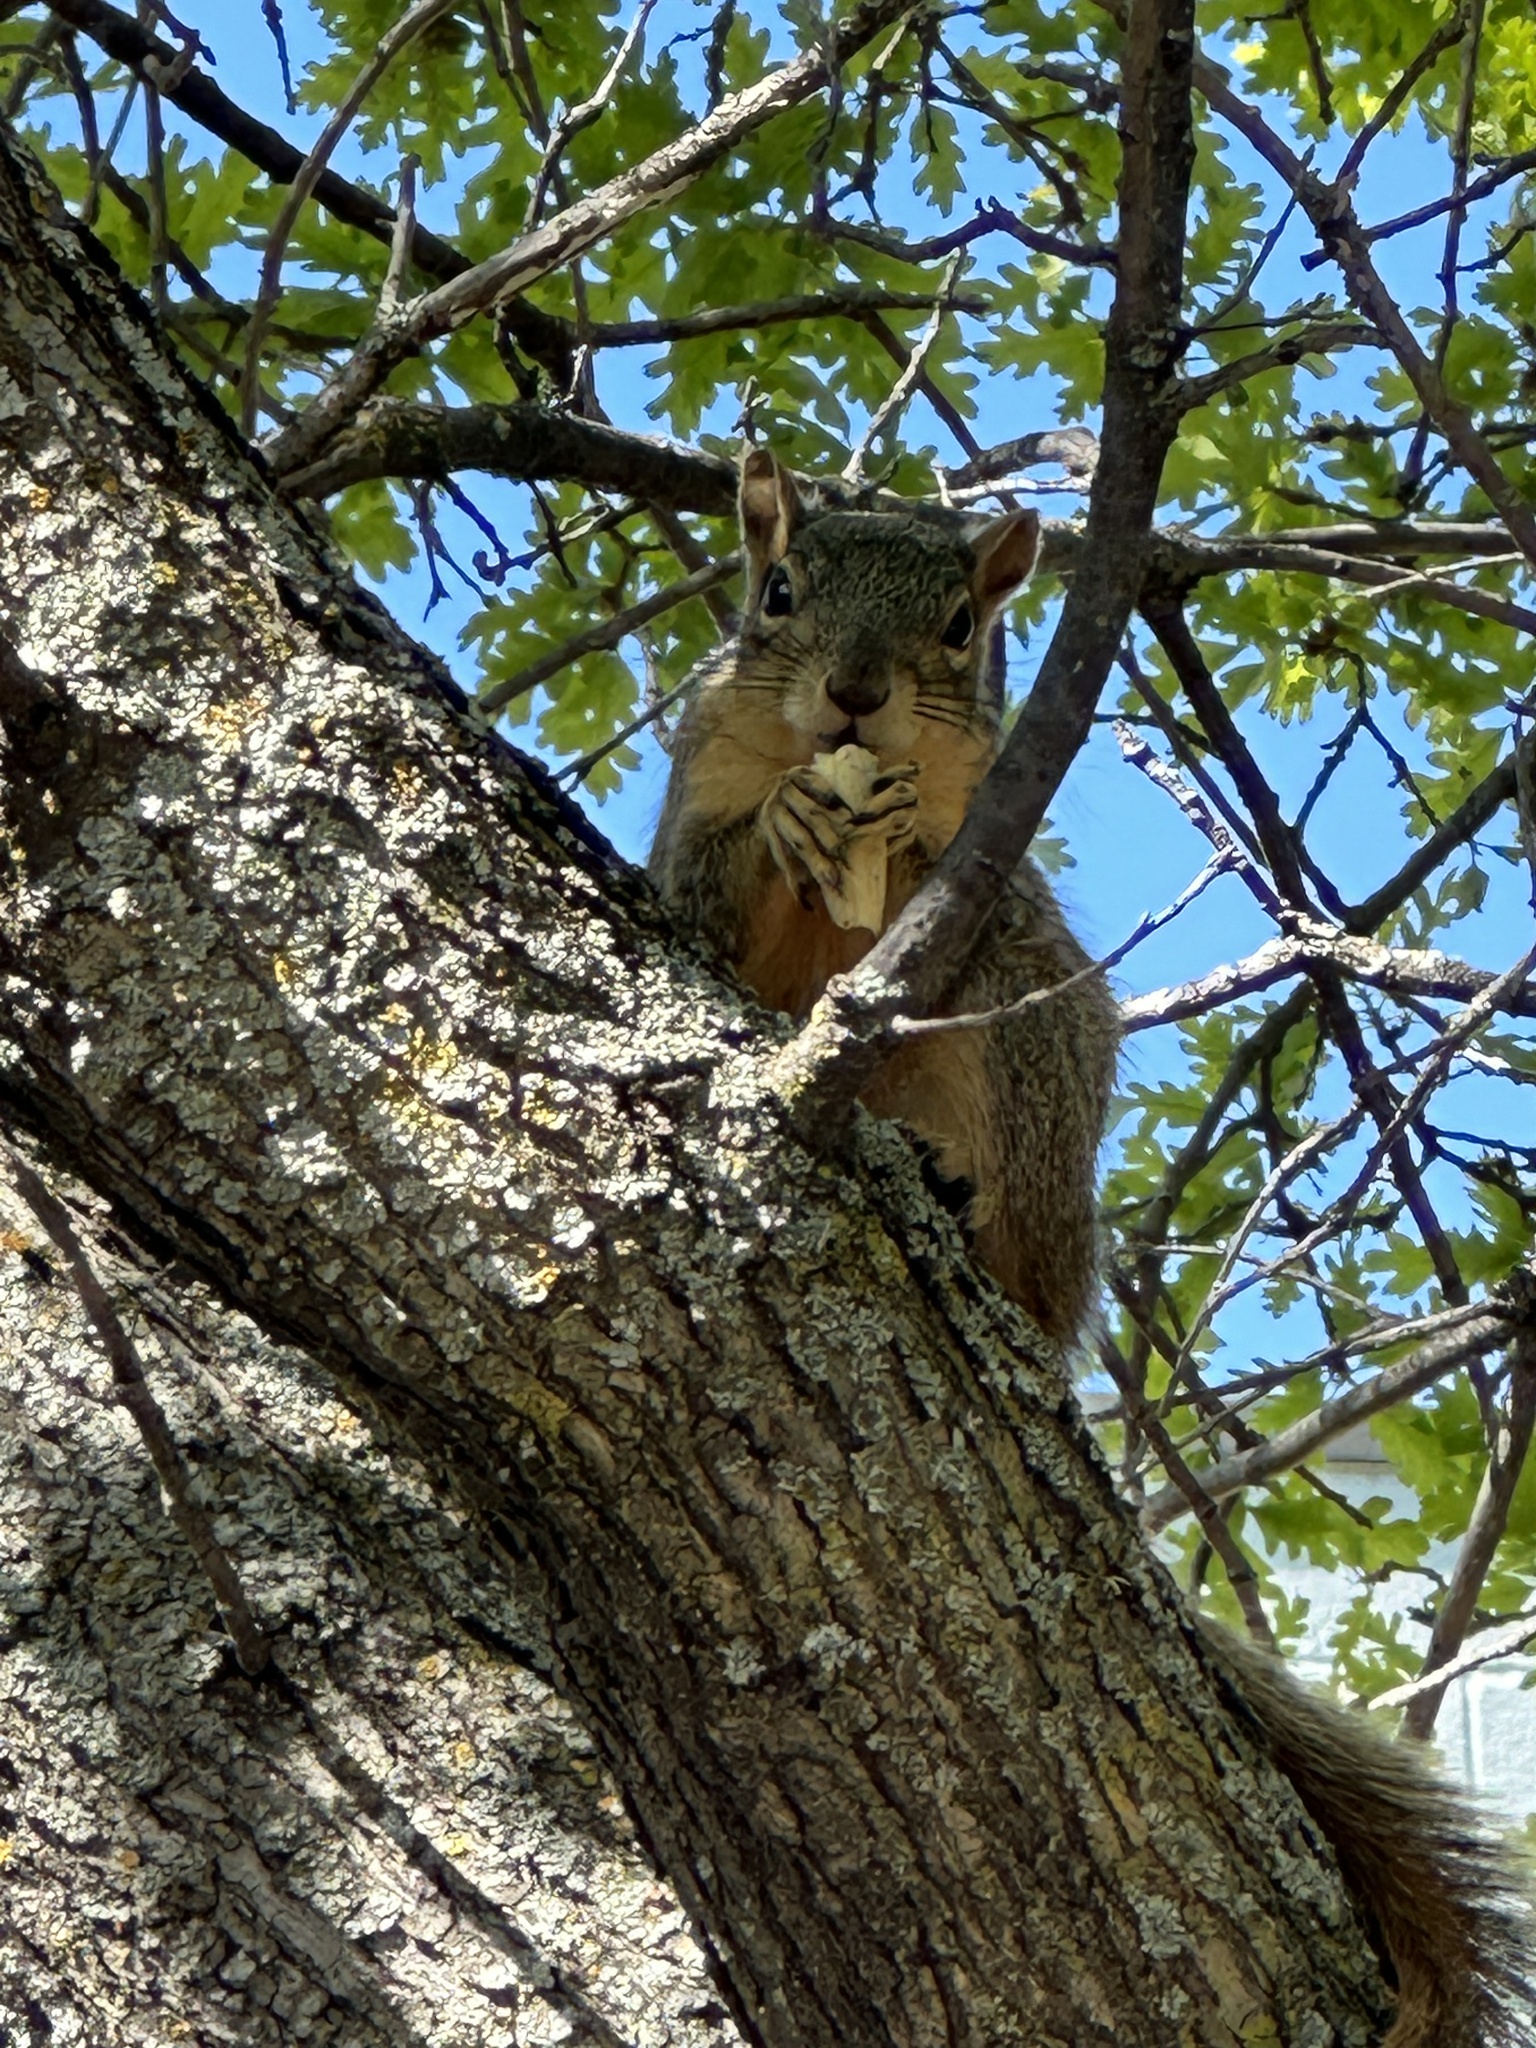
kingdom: Animalia
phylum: Chordata
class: Mammalia
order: Rodentia
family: Sciuridae
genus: Sciurus
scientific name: Sciurus niger
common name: Fox squirrel
